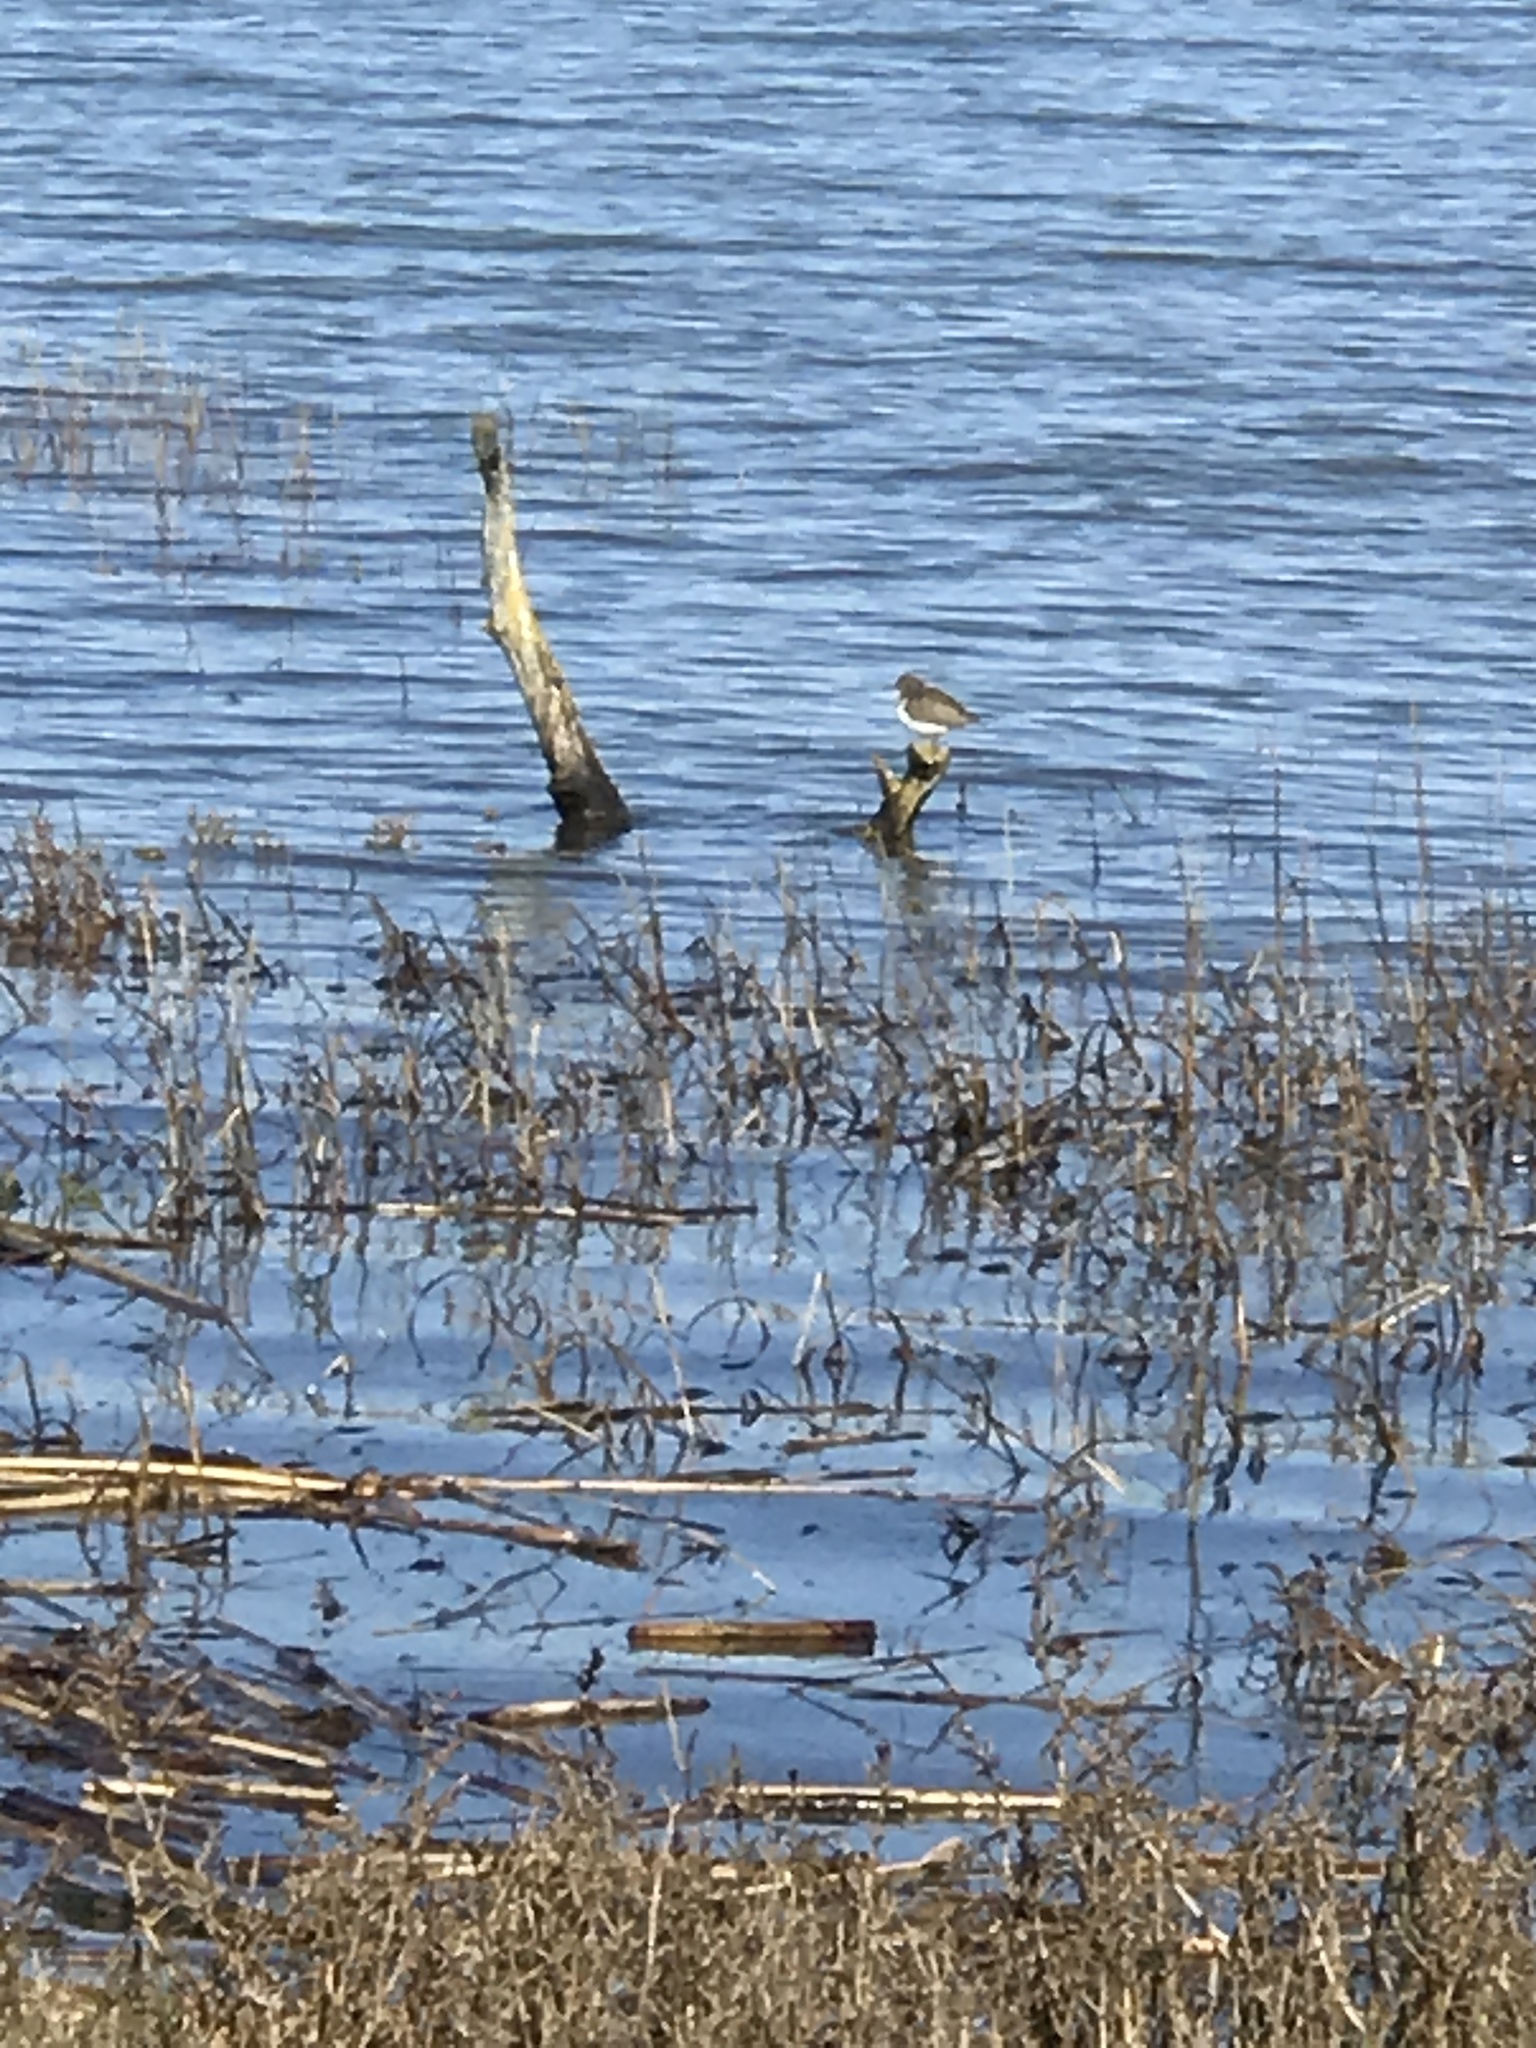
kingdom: Animalia
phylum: Chordata
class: Aves
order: Charadriiformes
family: Scolopacidae
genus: Actitis
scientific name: Actitis macularius
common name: Spotted sandpiper
